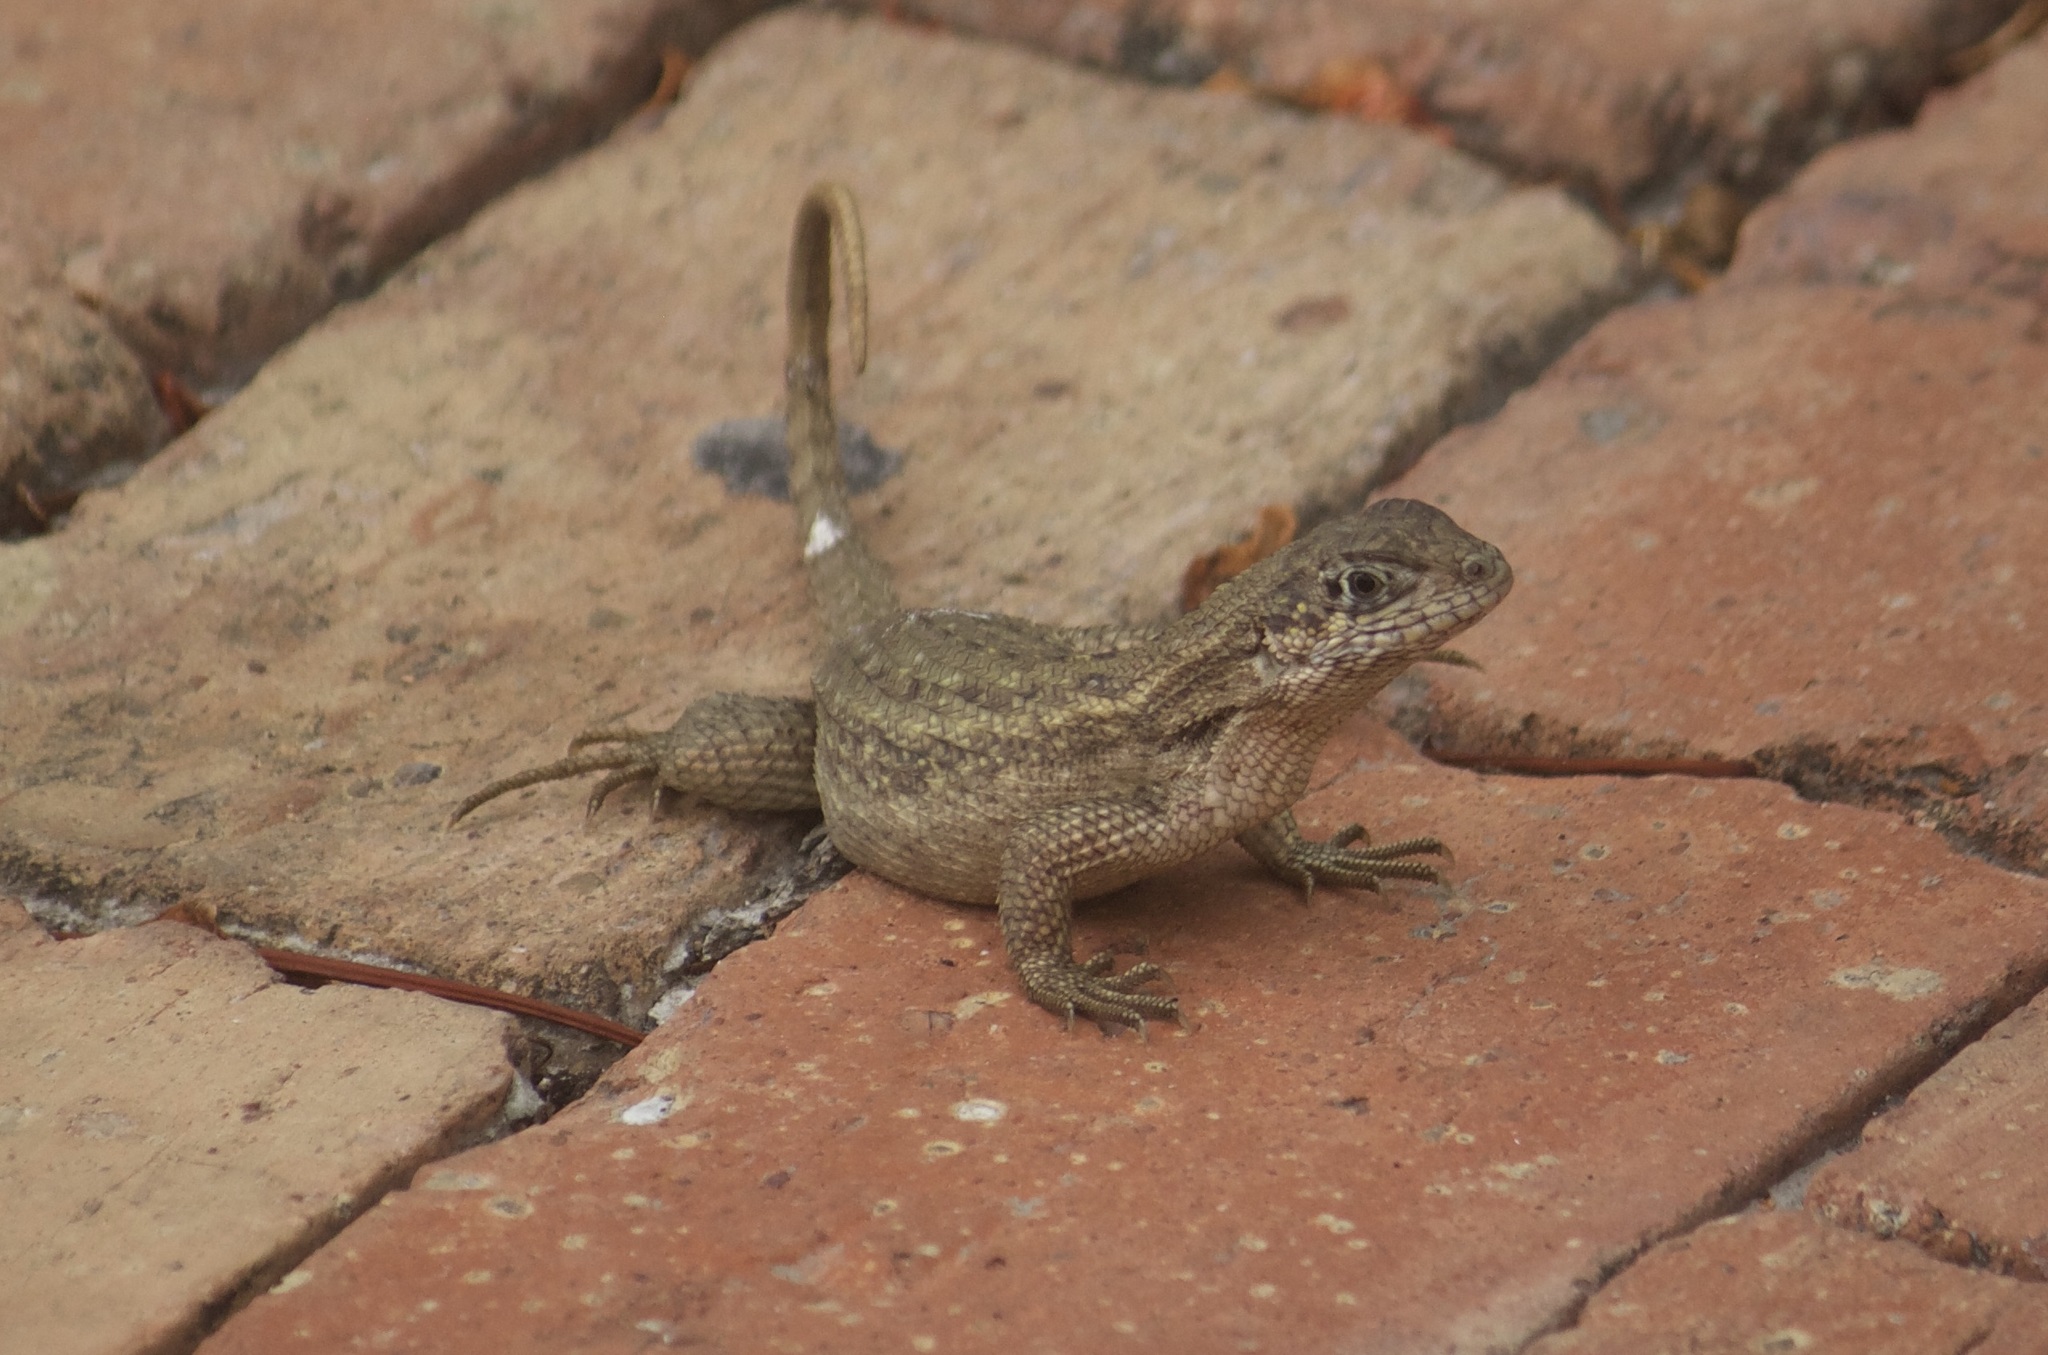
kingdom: Animalia
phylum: Chordata
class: Squamata
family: Leiocephalidae
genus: Leiocephalus
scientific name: Leiocephalus carinatus
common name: Northern curly-tailed lizard
